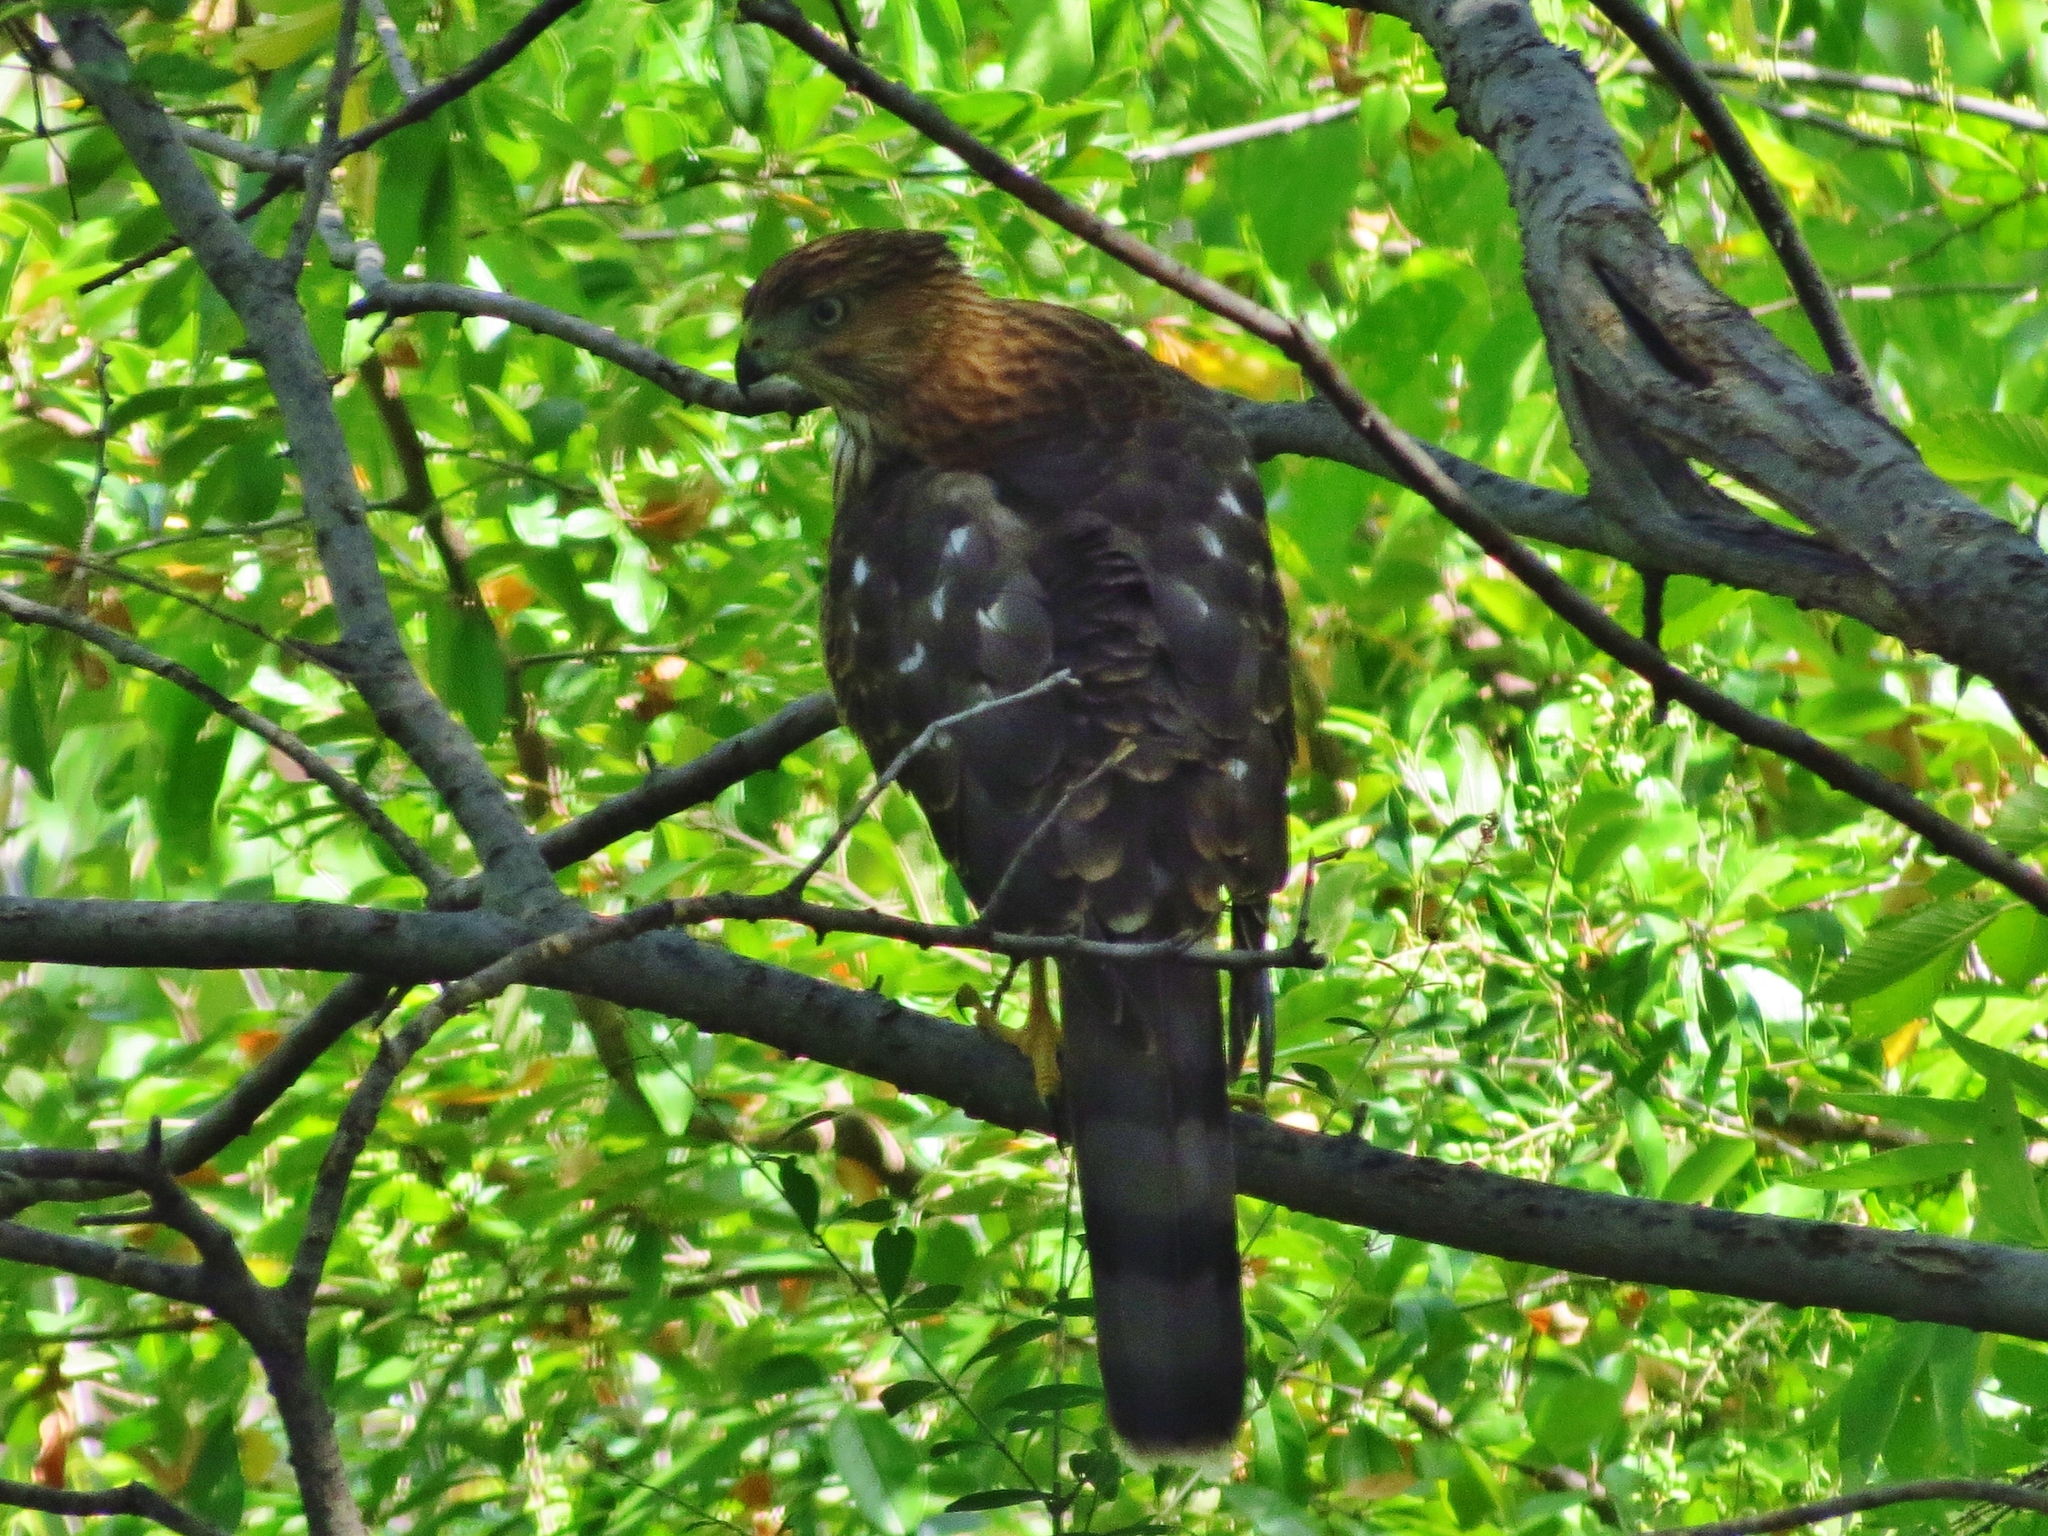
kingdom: Animalia
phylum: Chordata
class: Aves
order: Accipitriformes
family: Accipitridae
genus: Accipiter
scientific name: Accipiter cooperii
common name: Cooper's hawk
